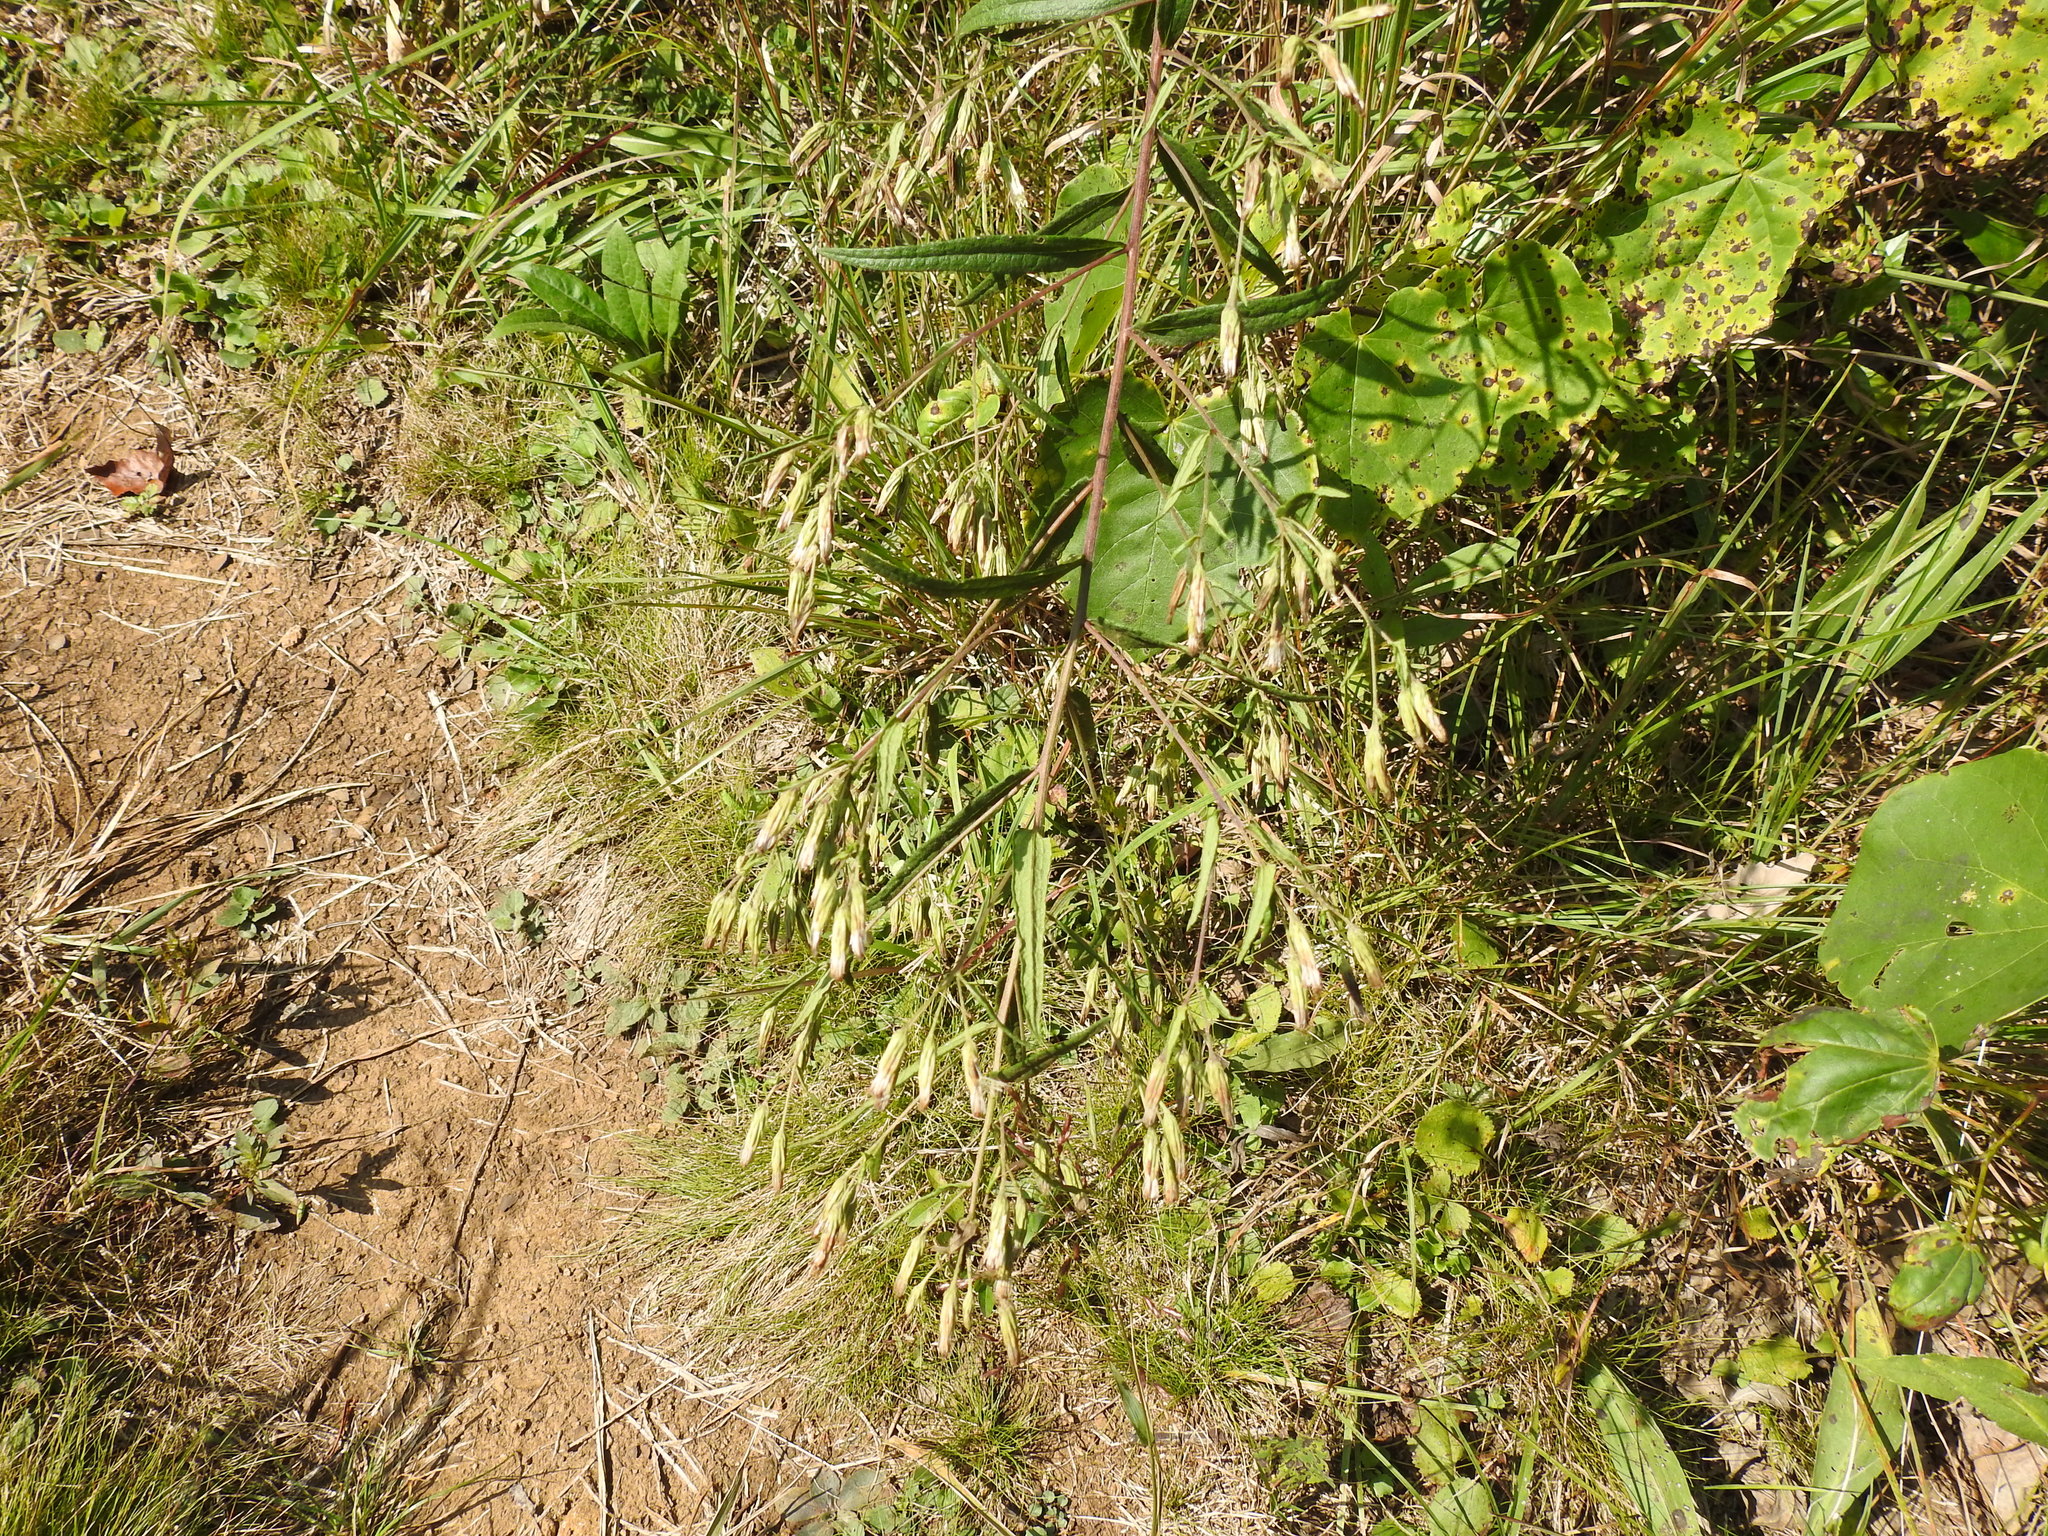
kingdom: Plantae
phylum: Tracheophyta
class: Magnoliopsida
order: Asterales
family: Asteraceae
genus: Brickellia
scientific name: Brickellia eupatorioides
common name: False boneset
